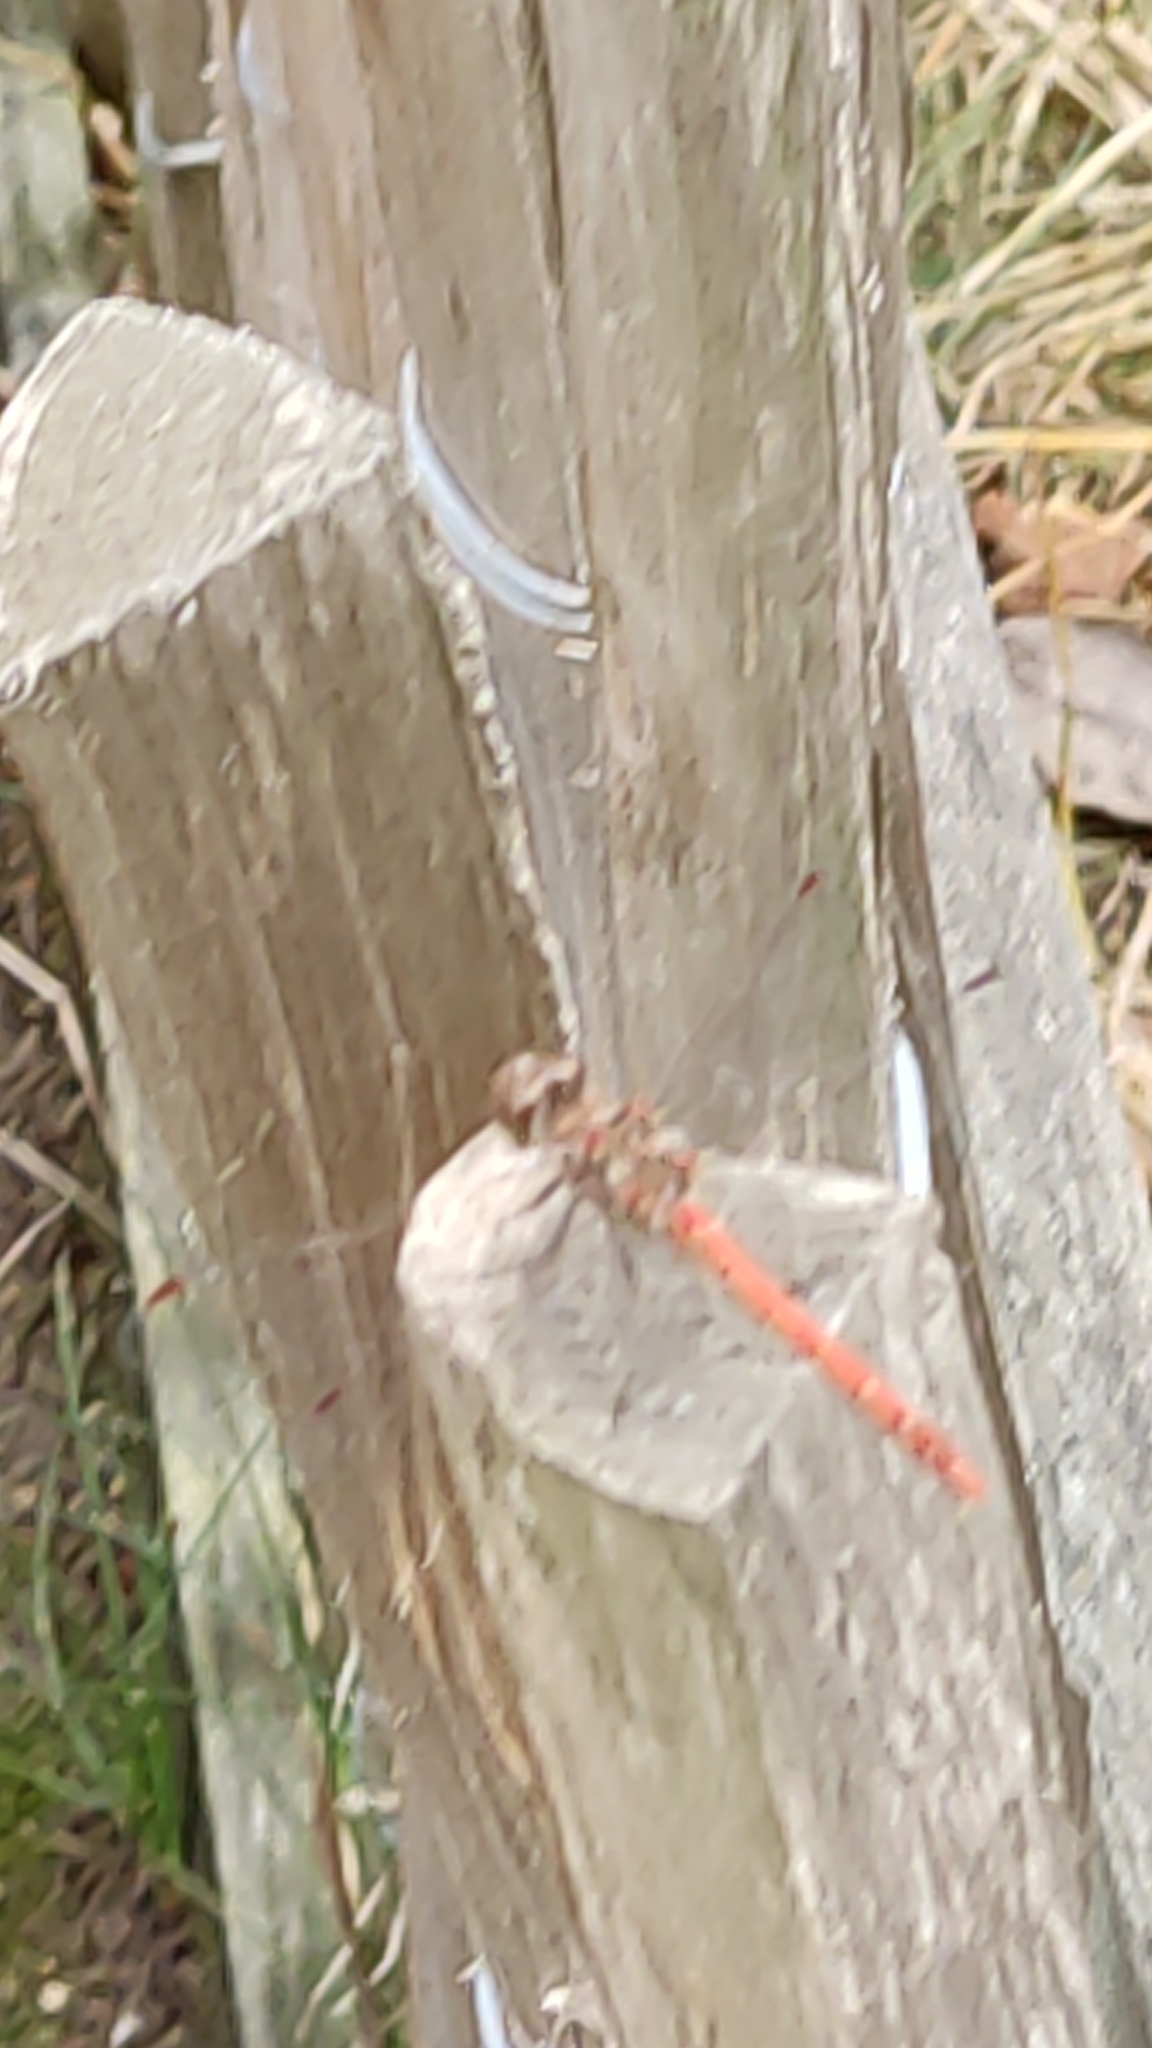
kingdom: Animalia
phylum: Arthropoda
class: Insecta
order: Odonata
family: Libellulidae
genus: Sympetrum
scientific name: Sympetrum striolatum
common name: Common darter
